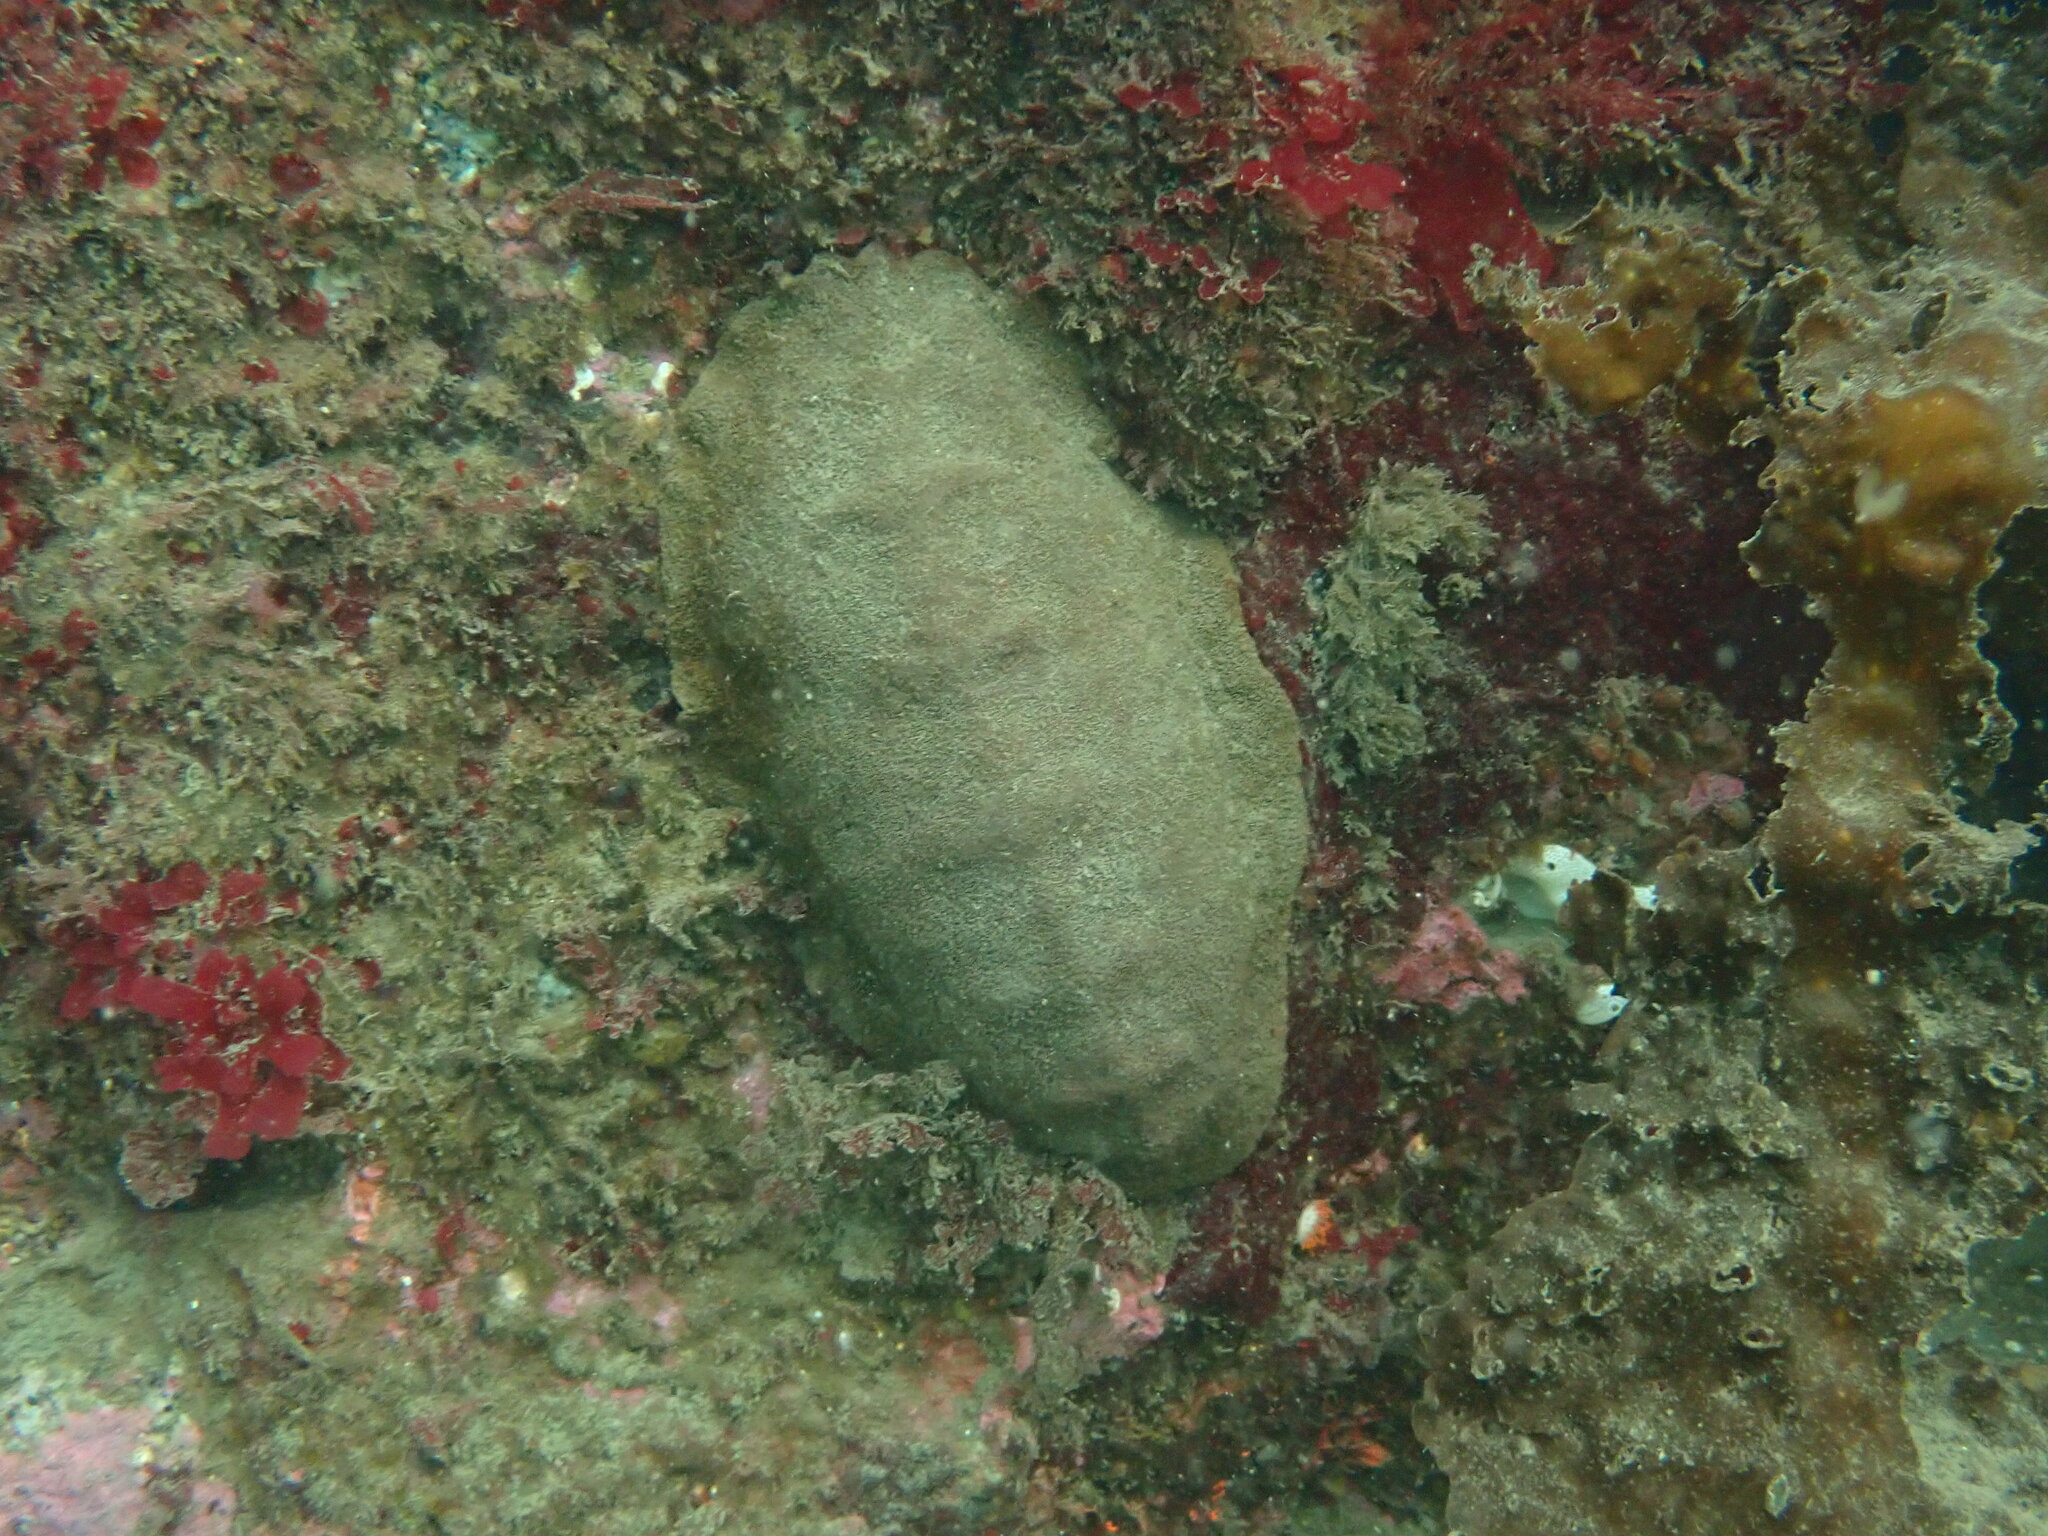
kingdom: Animalia
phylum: Mollusca
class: Polyplacophora
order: Chitonida
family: Acanthochitonidae
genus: Cryptochiton
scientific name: Cryptochiton stelleri
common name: Giant pacific chiton
